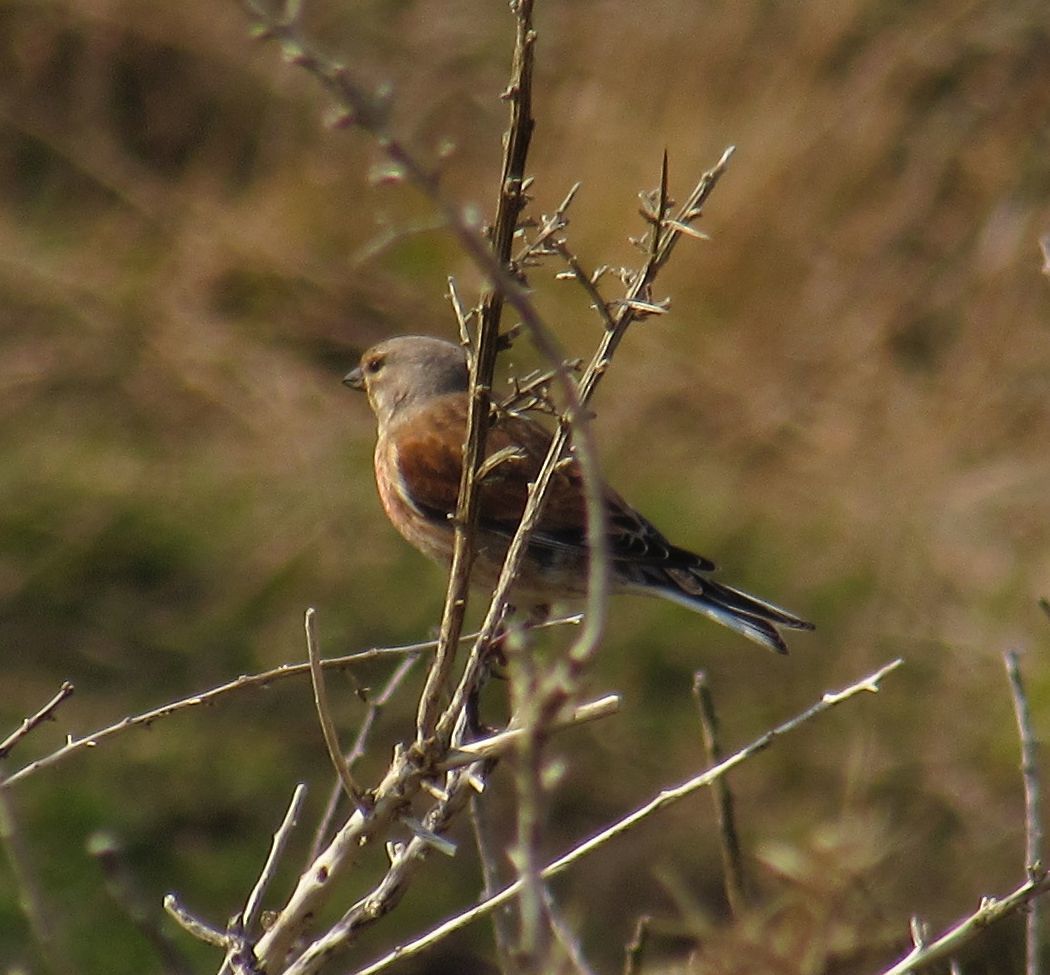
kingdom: Animalia
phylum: Chordata
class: Aves
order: Passeriformes
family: Fringillidae
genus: Linaria
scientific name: Linaria cannabina
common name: Common linnet
